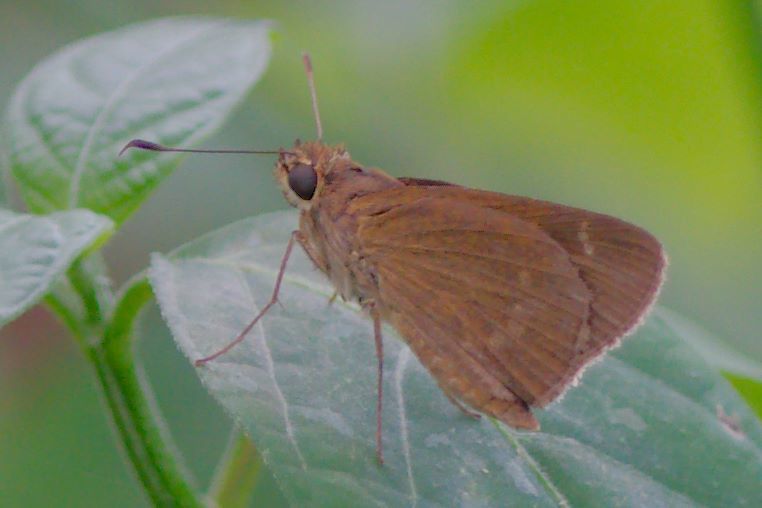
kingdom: Animalia
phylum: Arthropoda
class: Insecta
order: Lepidoptera
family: Hesperiidae
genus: Cymaenes
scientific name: Cymaenes tripunctus
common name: Dingy dotted skipper
